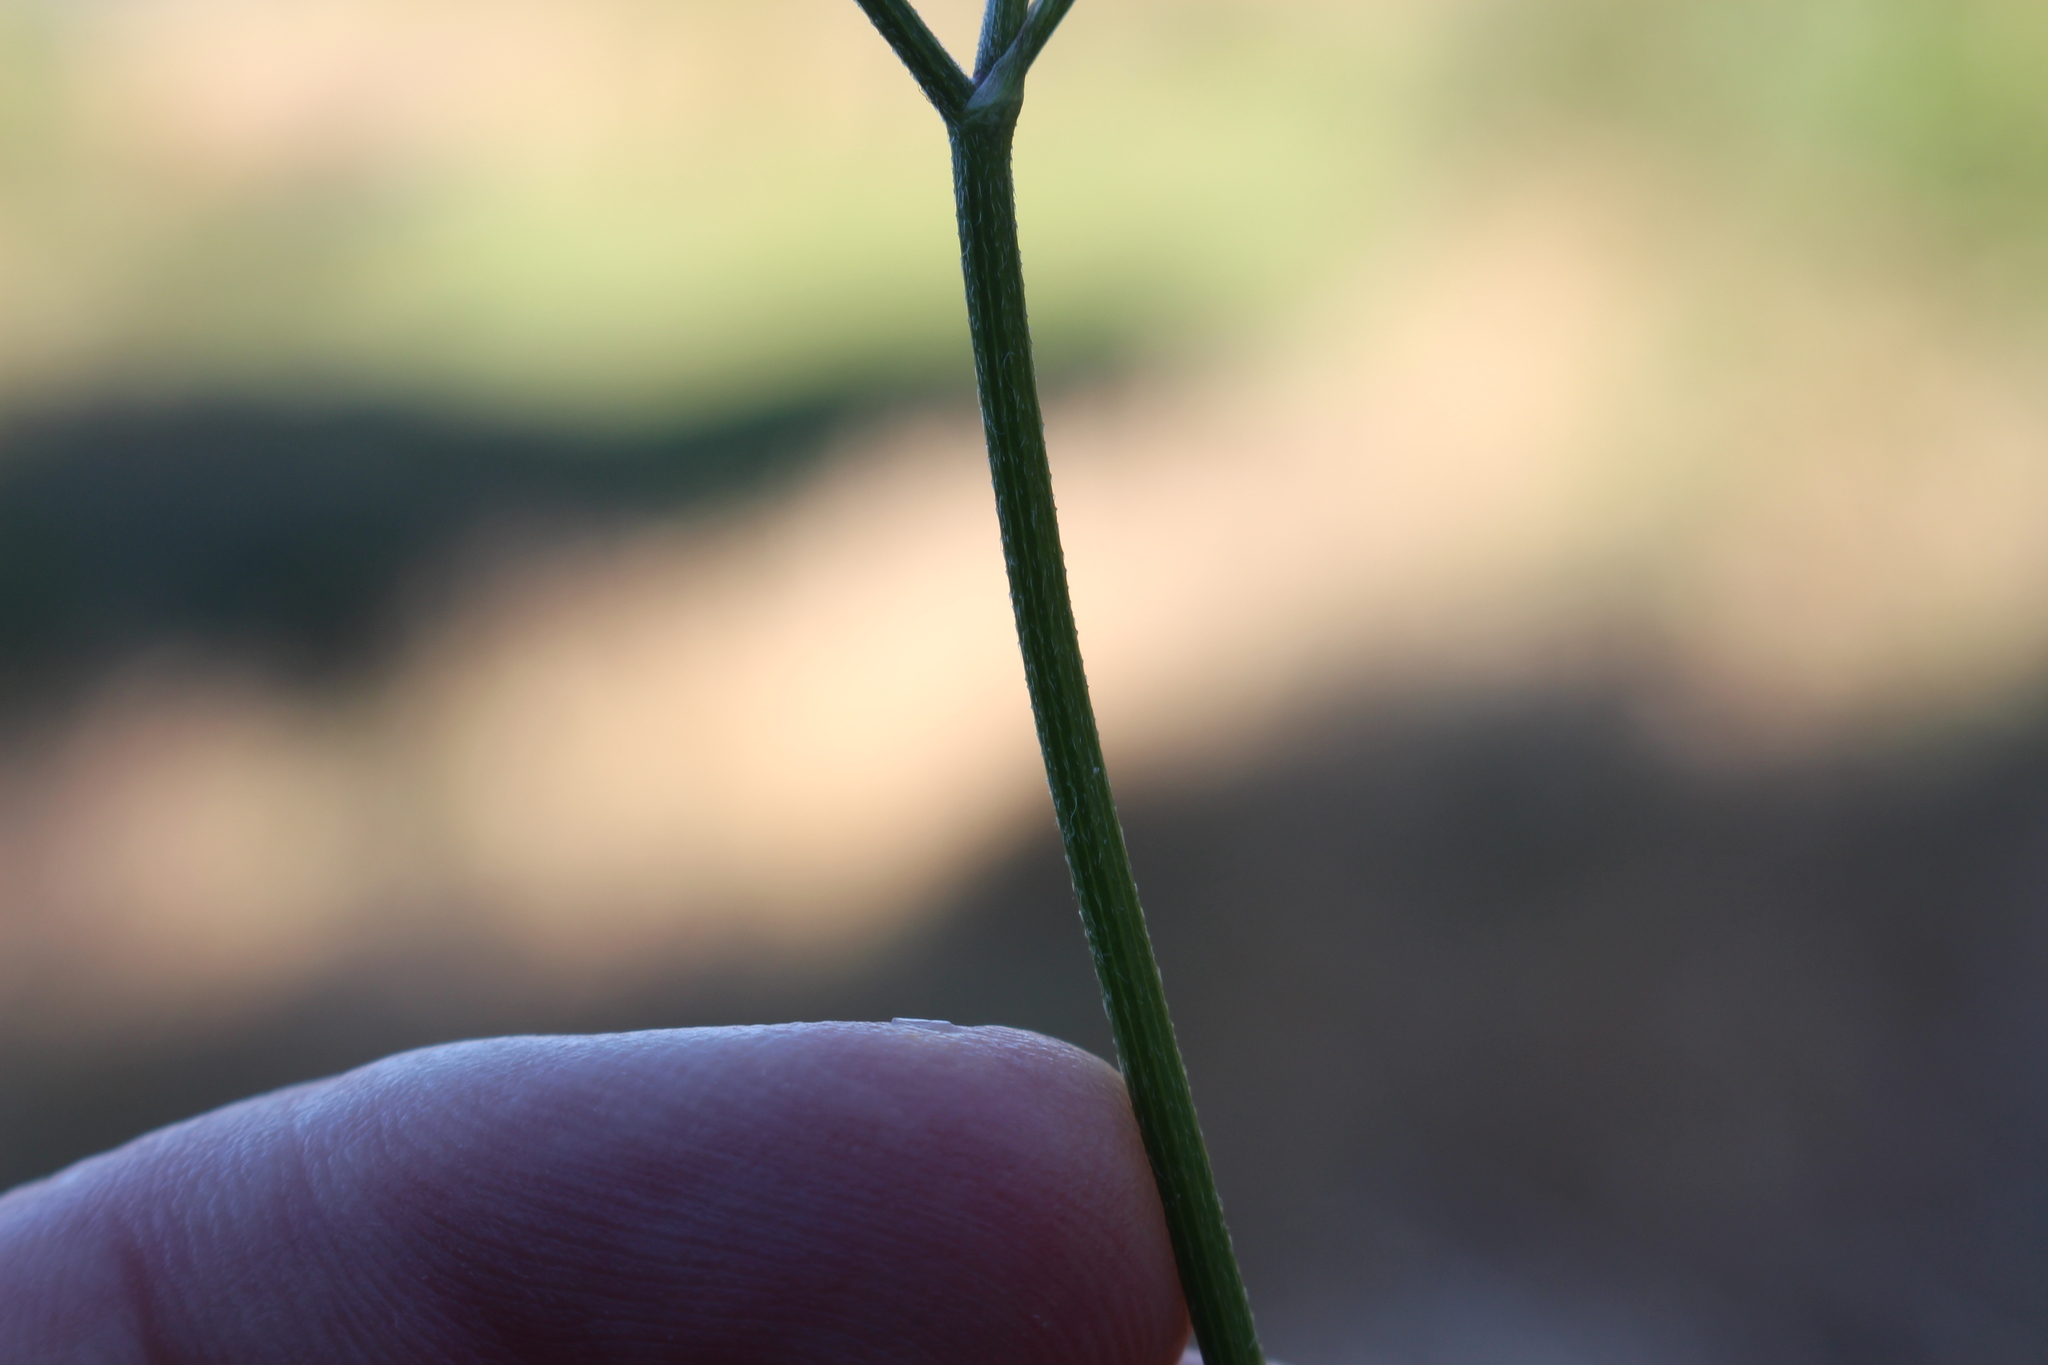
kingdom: Plantae
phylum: Tracheophyta
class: Magnoliopsida
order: Apiales
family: Apiaceae
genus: Torilis
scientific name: Torilis arvensis
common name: Spreading hedge-parsley
